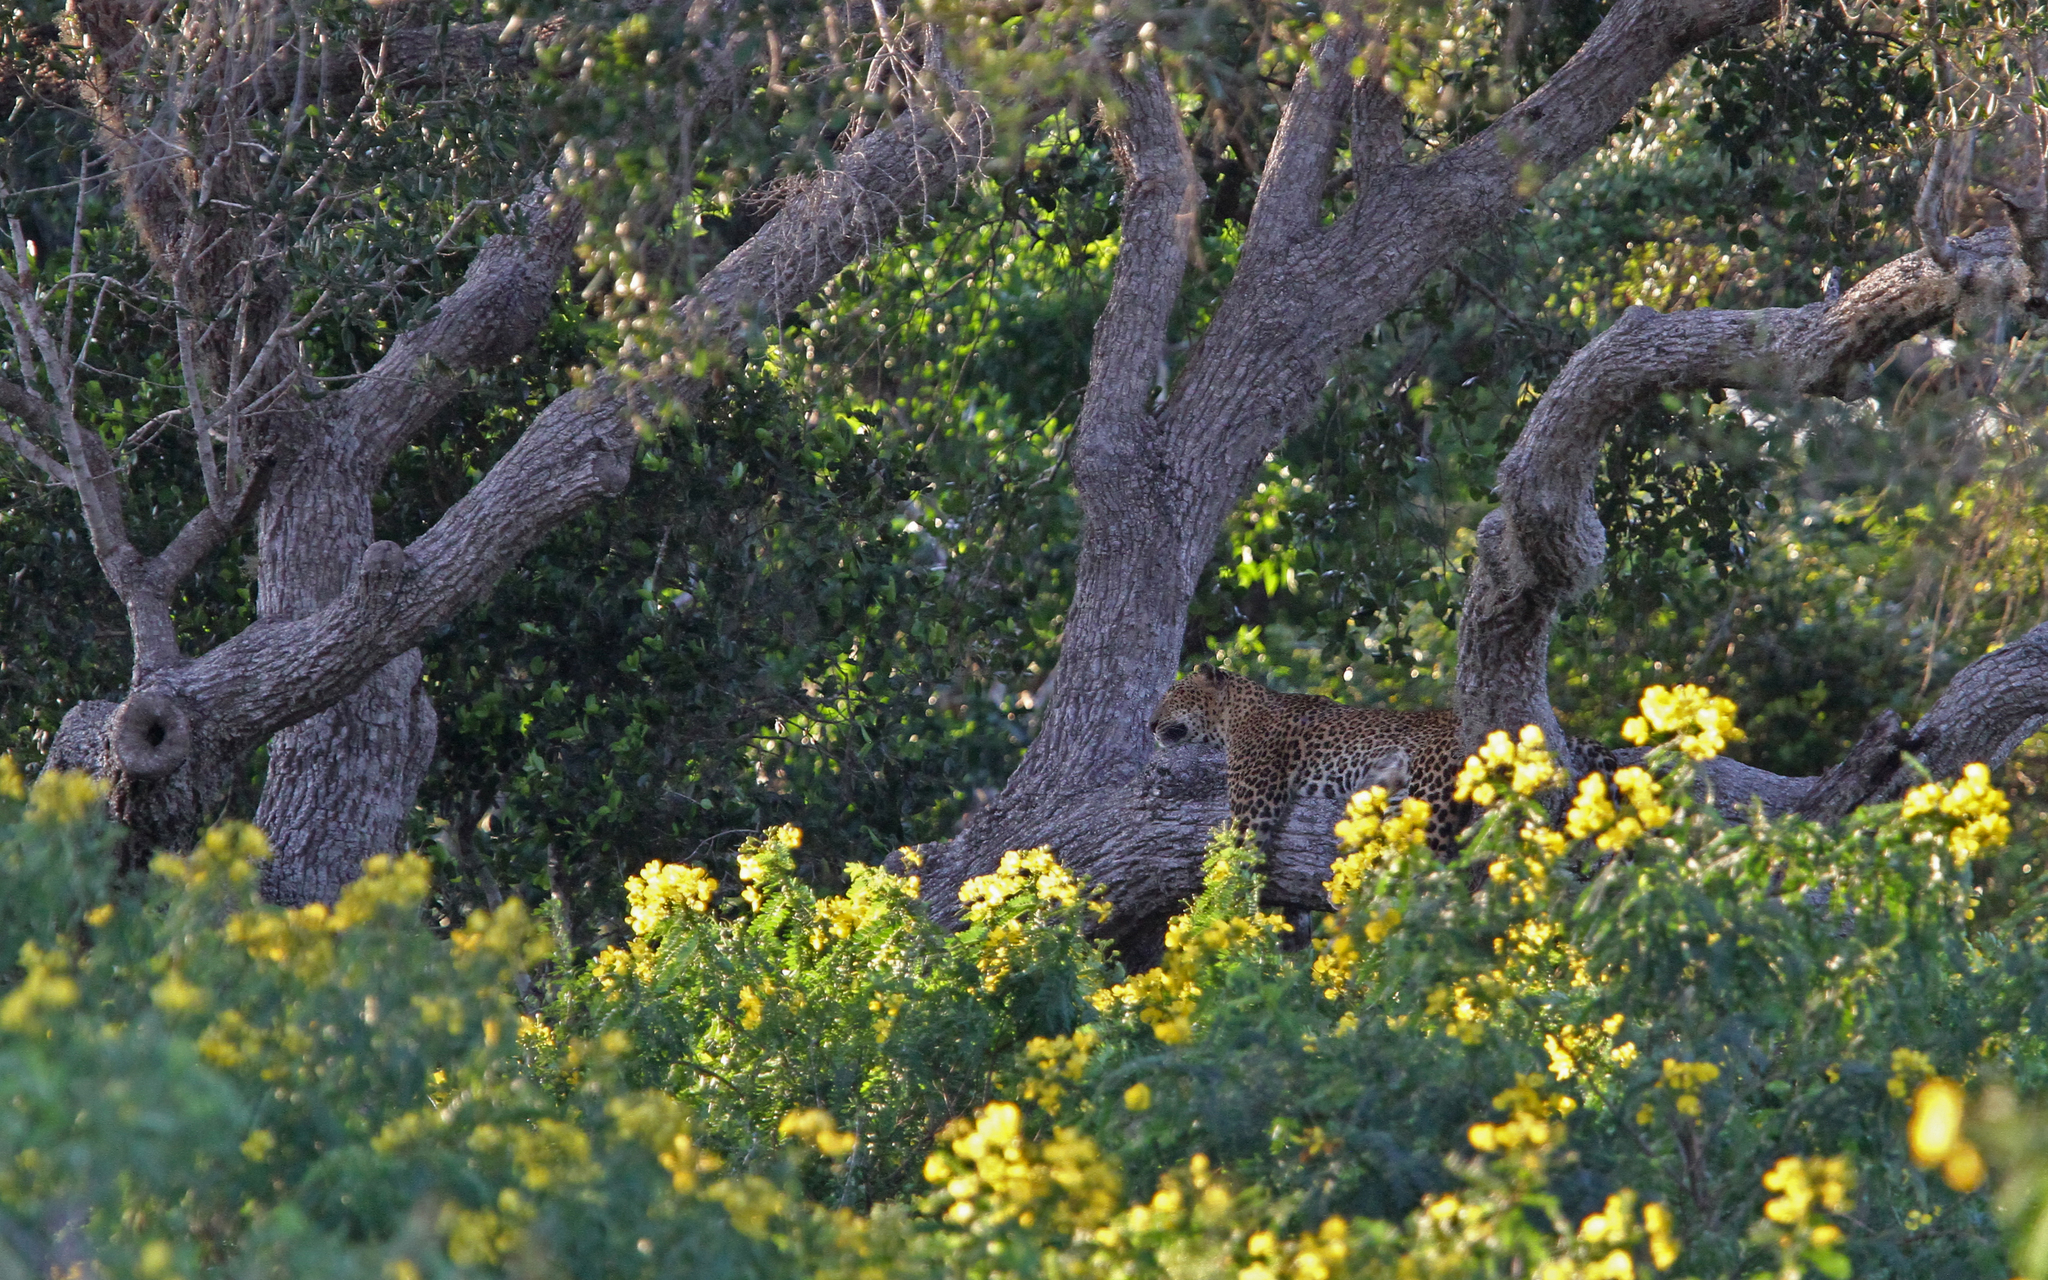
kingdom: Animalia
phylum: Chordata
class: Mammalia
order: Carnivora
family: Felidae
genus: Panthera
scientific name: Panthera pardus
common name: Leopard
